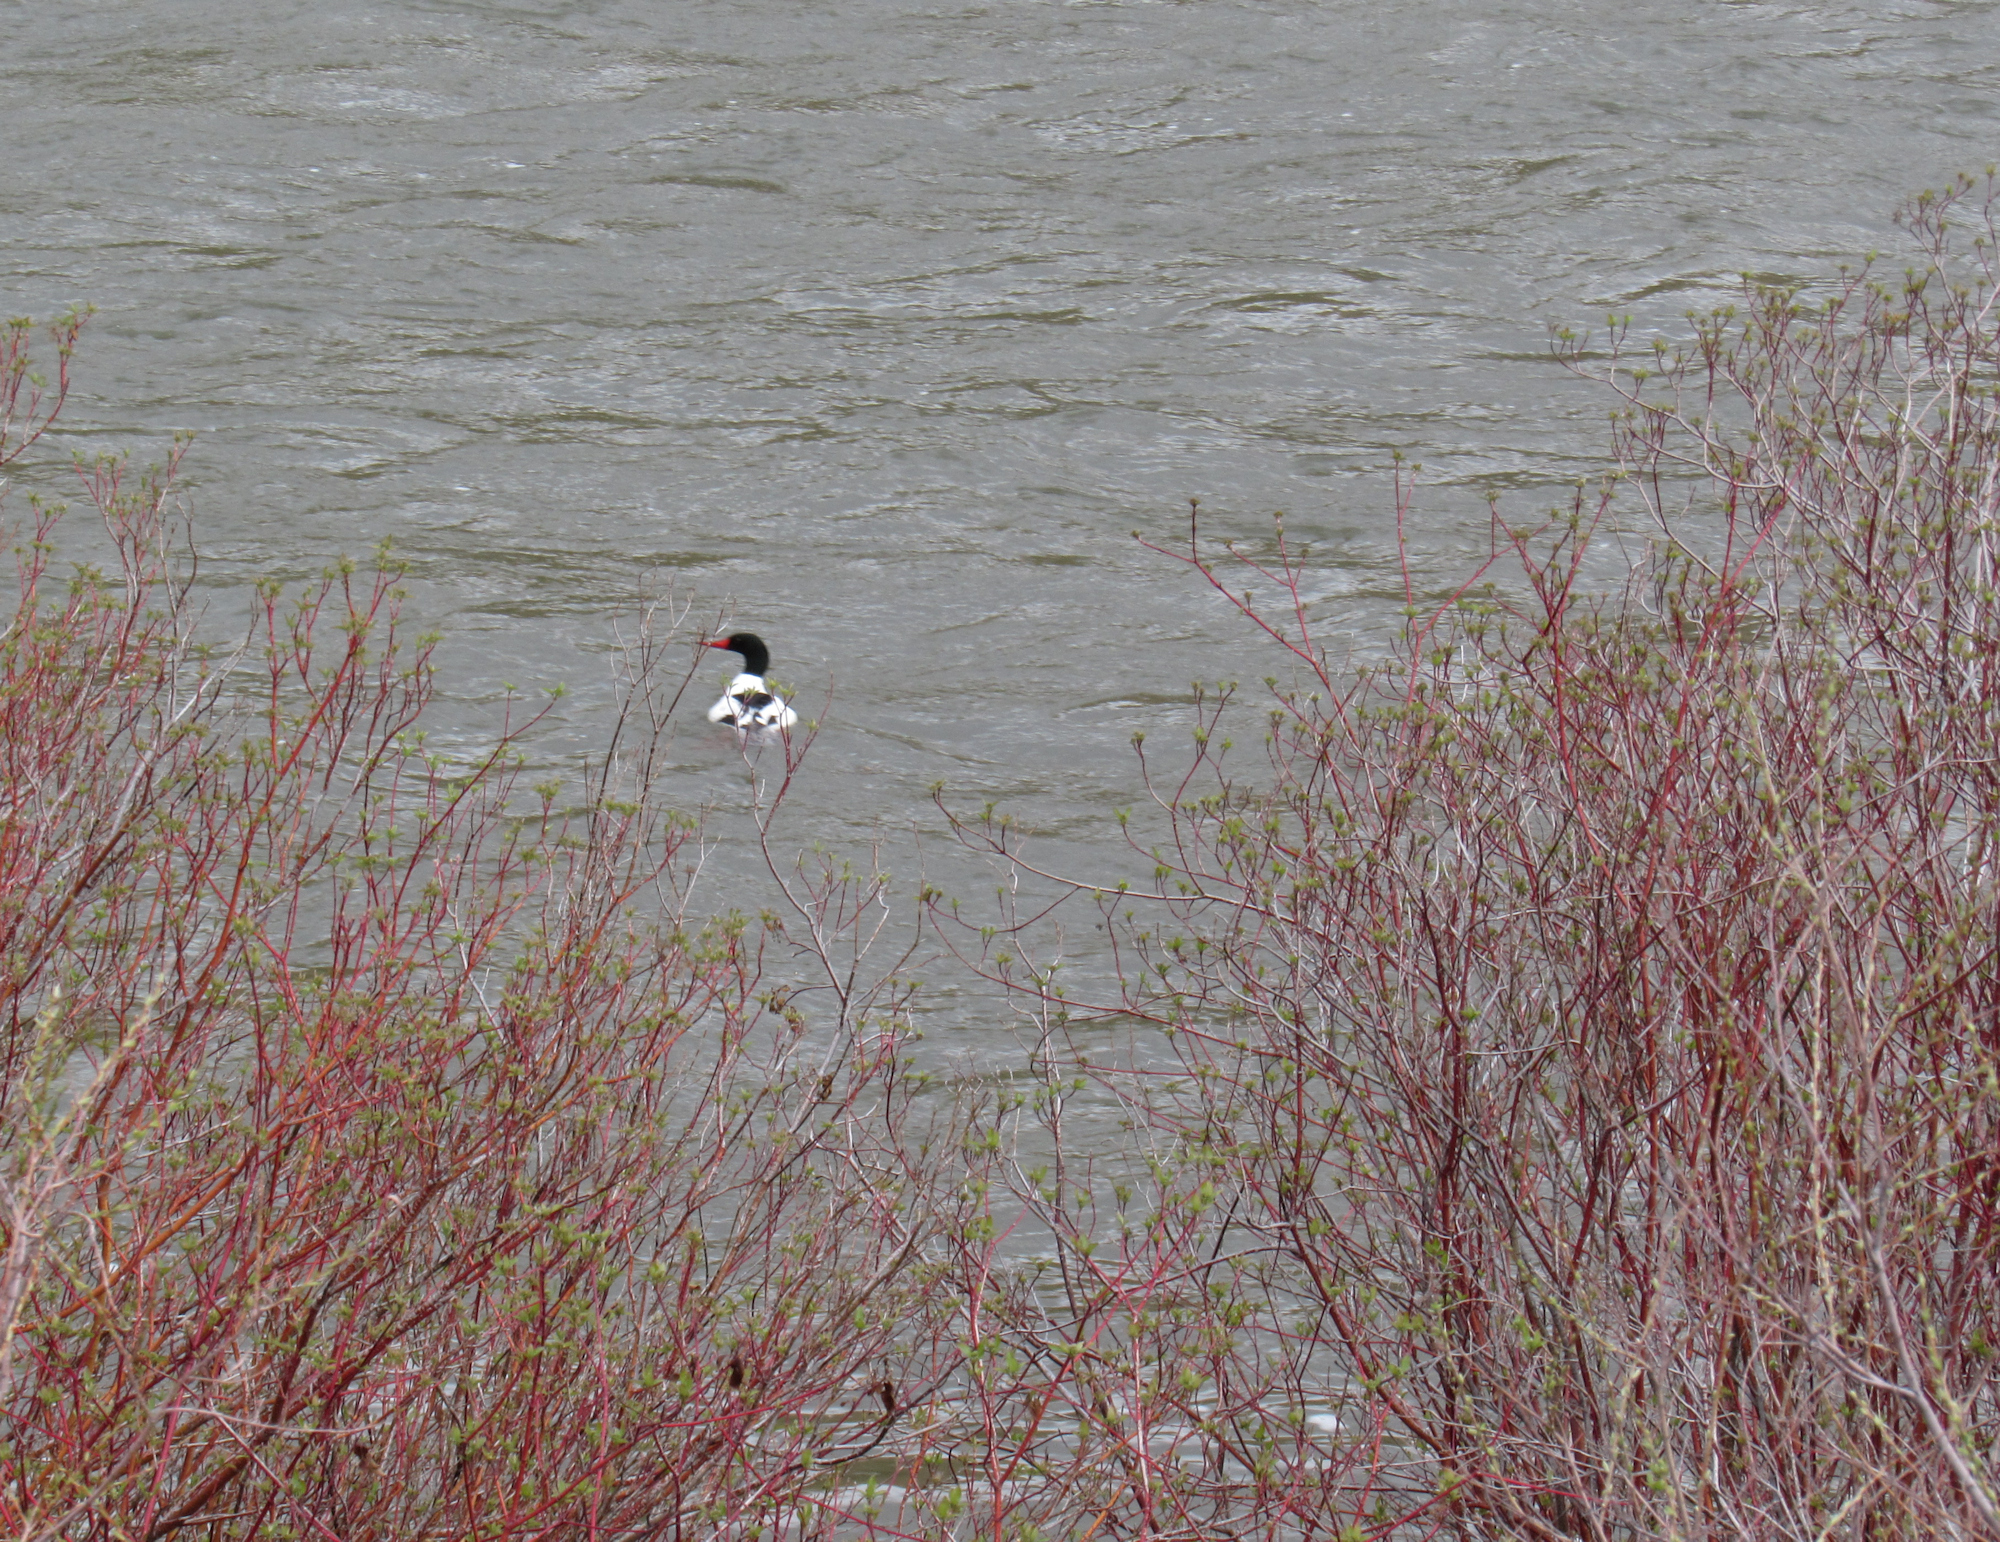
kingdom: Animalia
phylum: Chordata
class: Aves
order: Anseriformes
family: Anatidae
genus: Mergus
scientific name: Mergus merganser
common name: Common merganser
